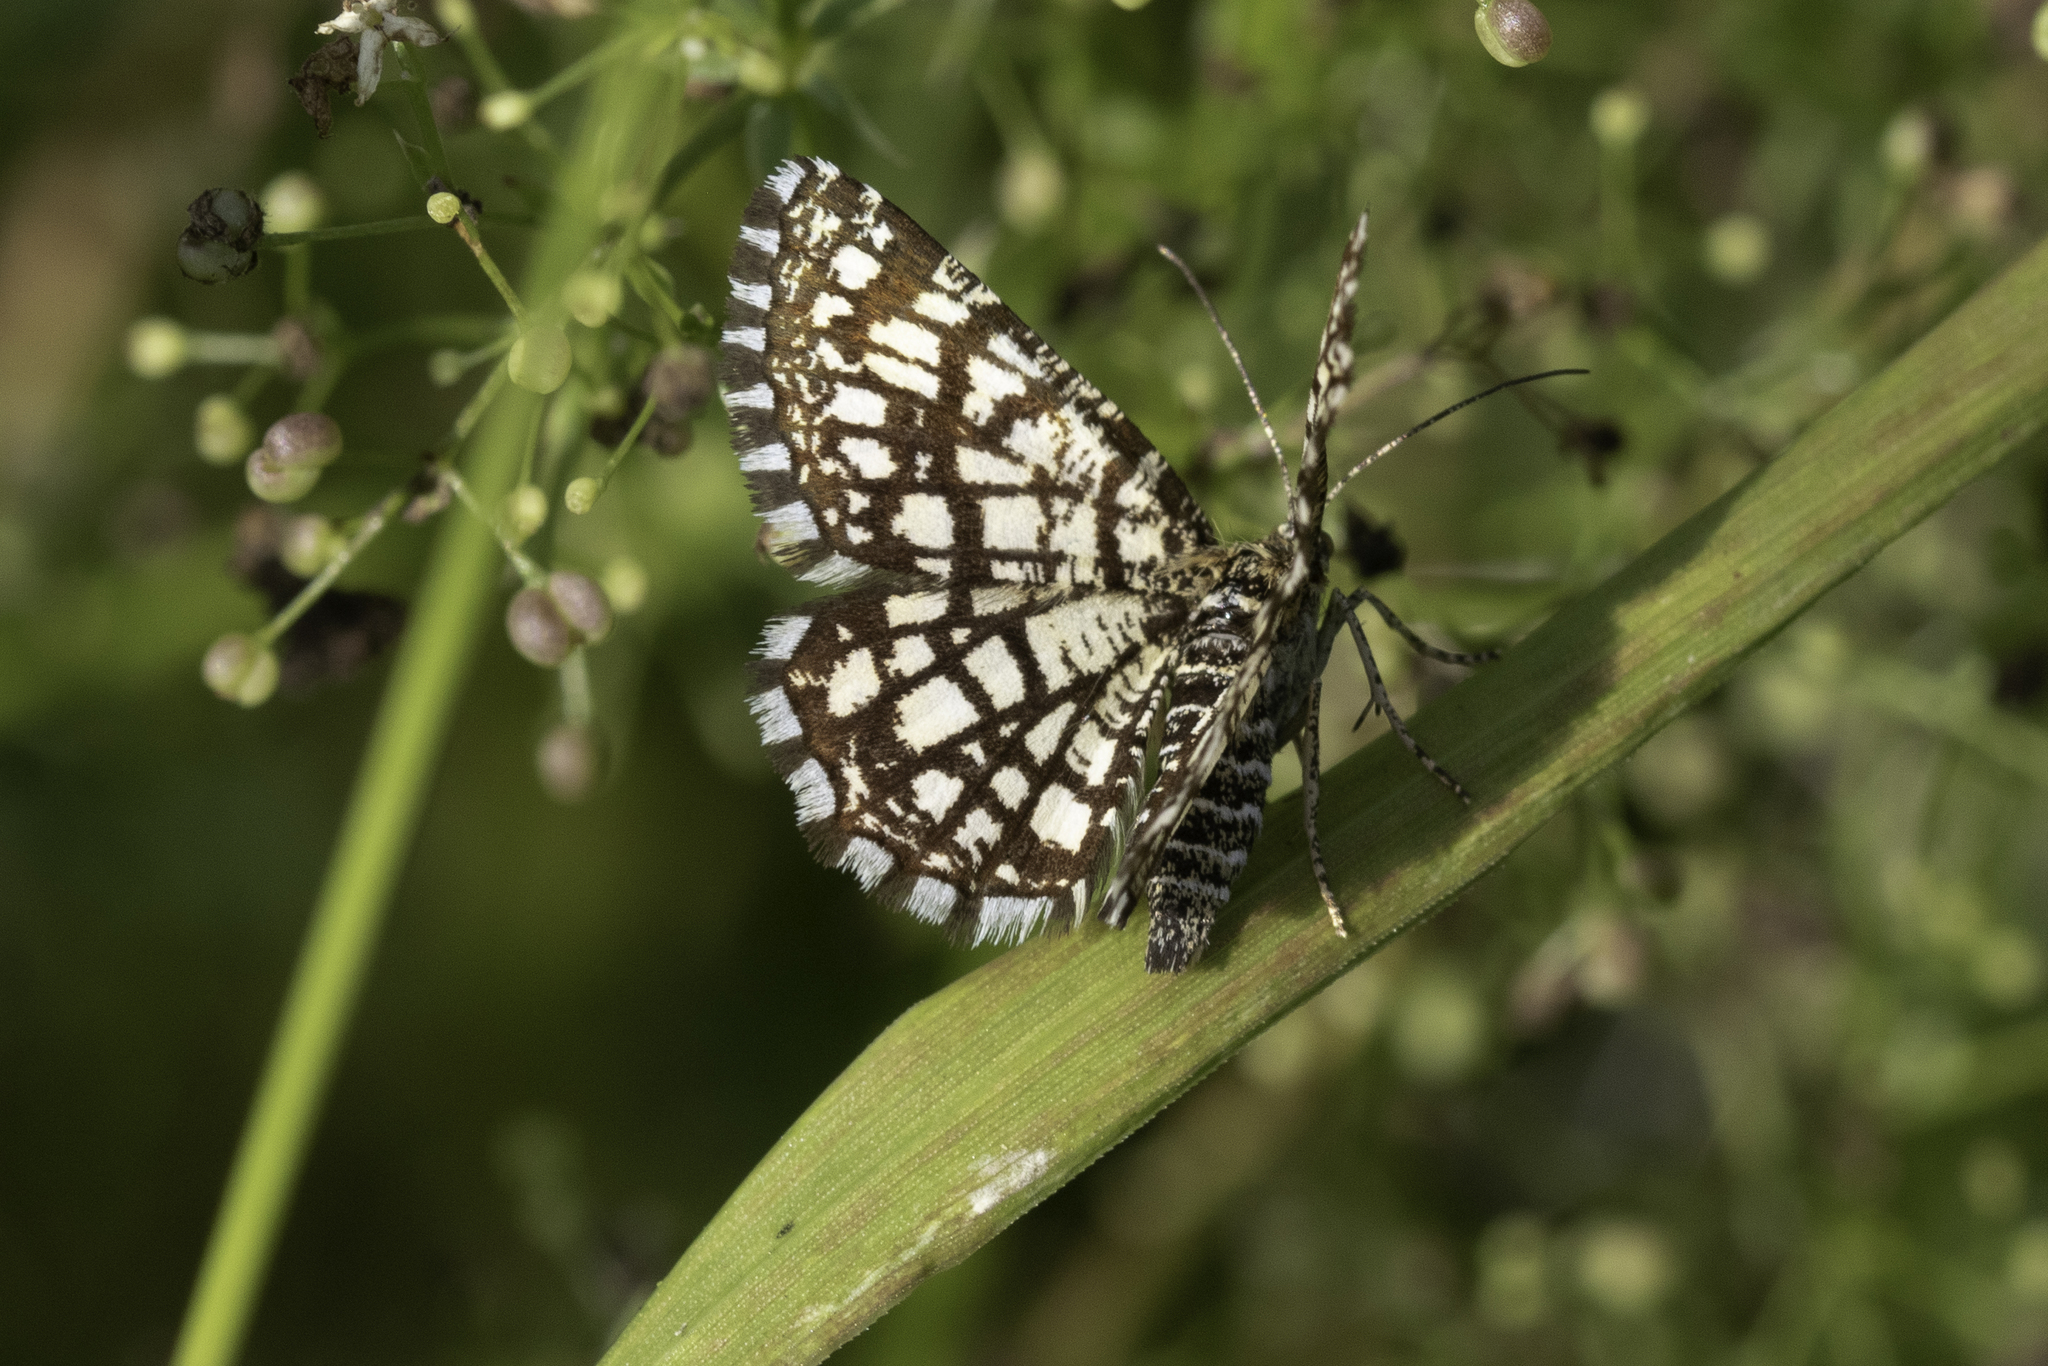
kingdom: Animalia
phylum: Arthropoda
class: Insecta
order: Lepidoptera
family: Geometridae
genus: Chiasmia
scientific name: Chiasmia clathrata
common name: Latticed heath
